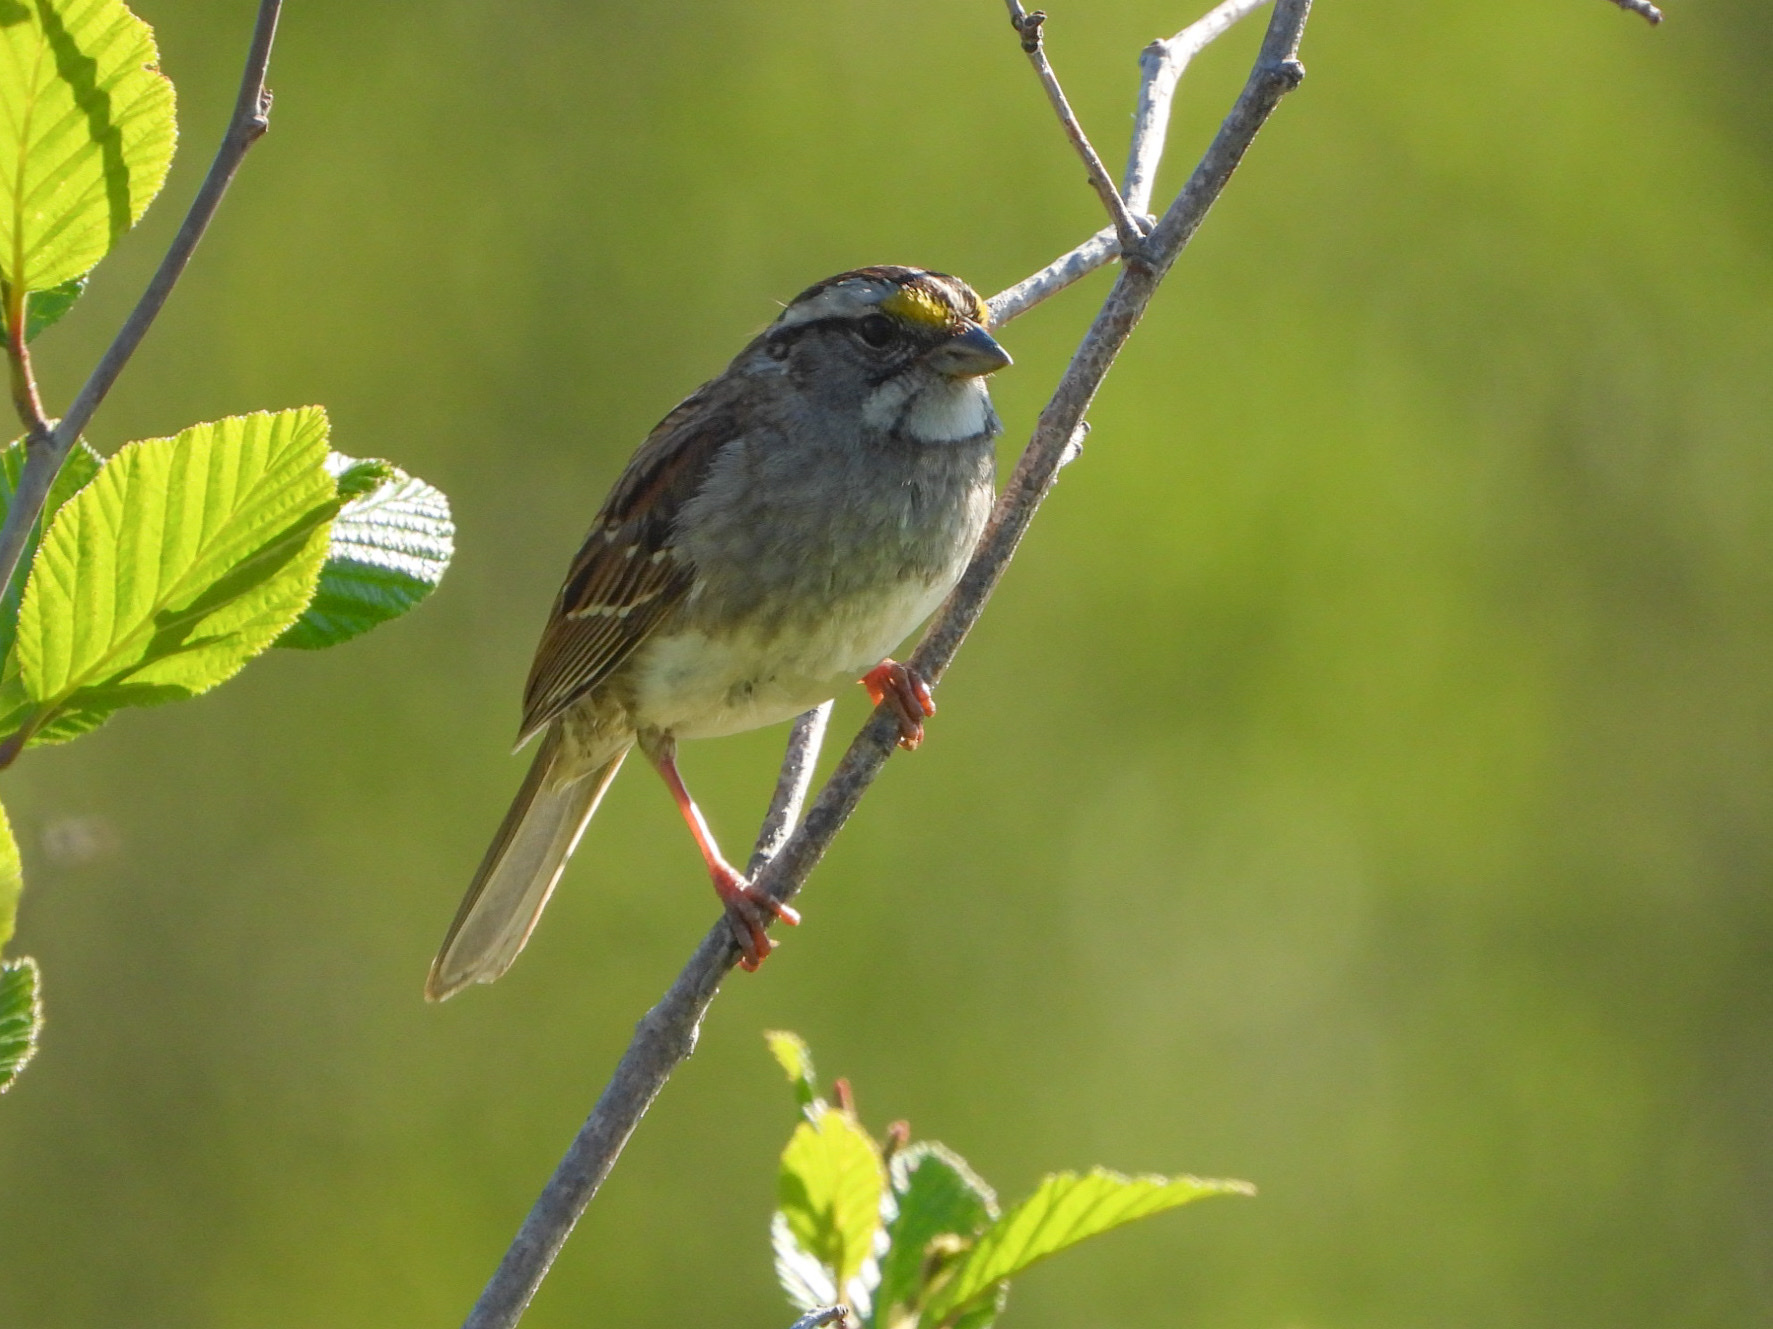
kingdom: Animalia
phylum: Chordata
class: Aves
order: Passeriformes
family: Passerellidae
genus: Zonotrichia
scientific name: Zonotrichia albicollis
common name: White-throated sparrow
